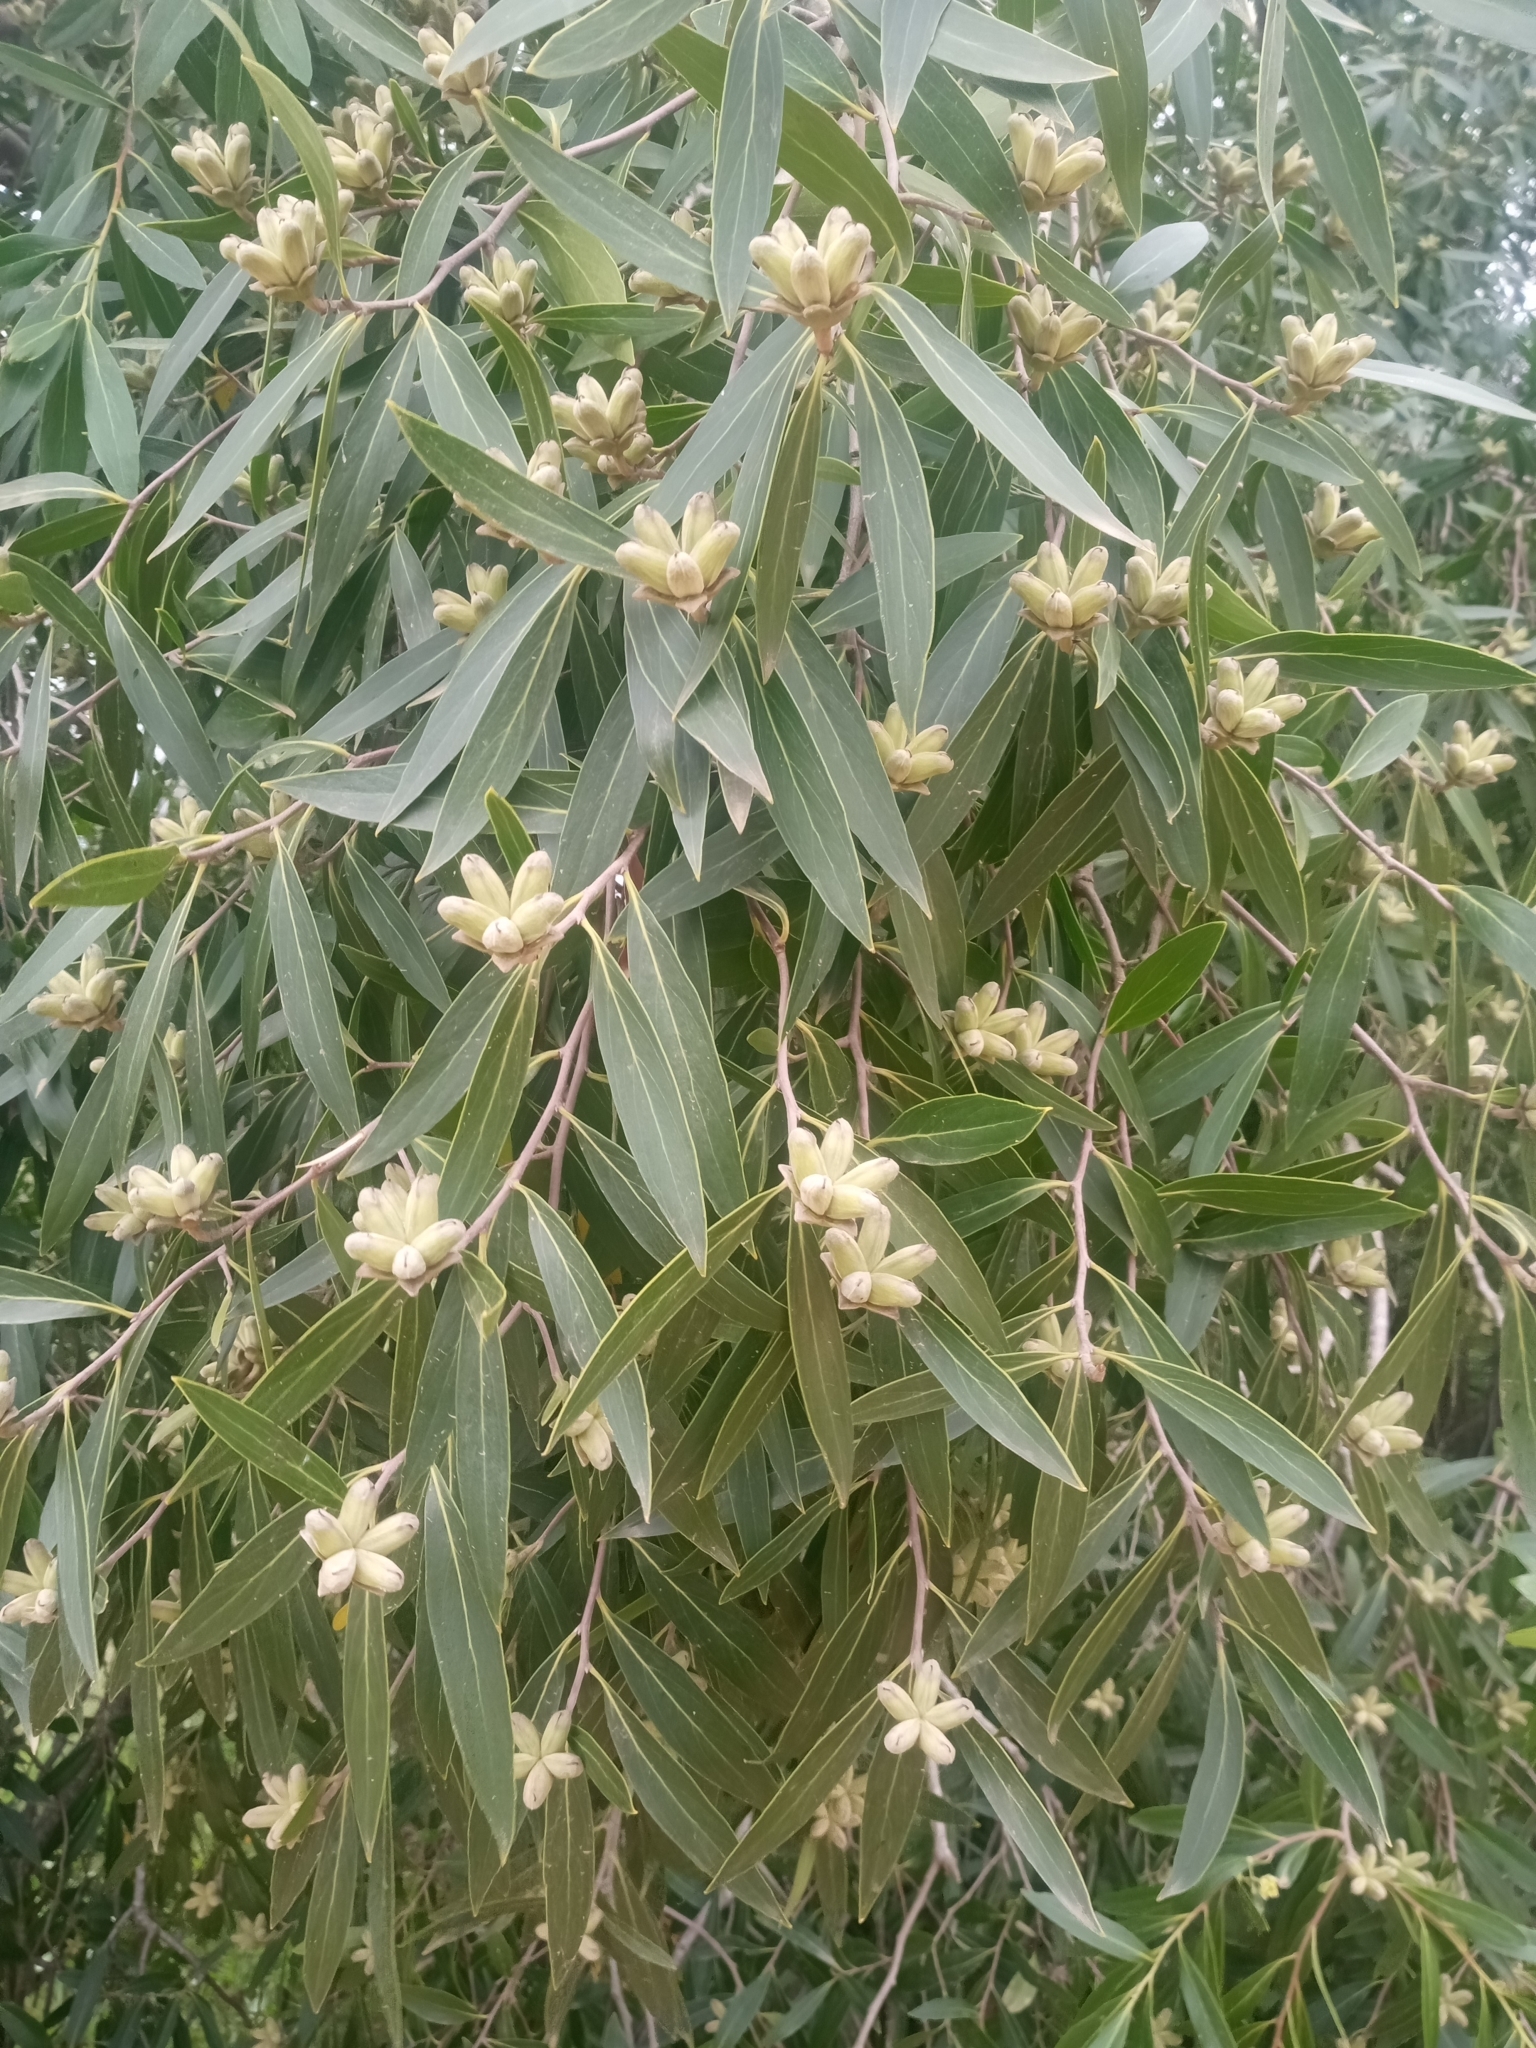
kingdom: Plantae
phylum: Tracheophyta
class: Magnoliopsida
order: Fabales
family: Quillajaceae
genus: Quillaja
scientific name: Quillaja brasiliensis
